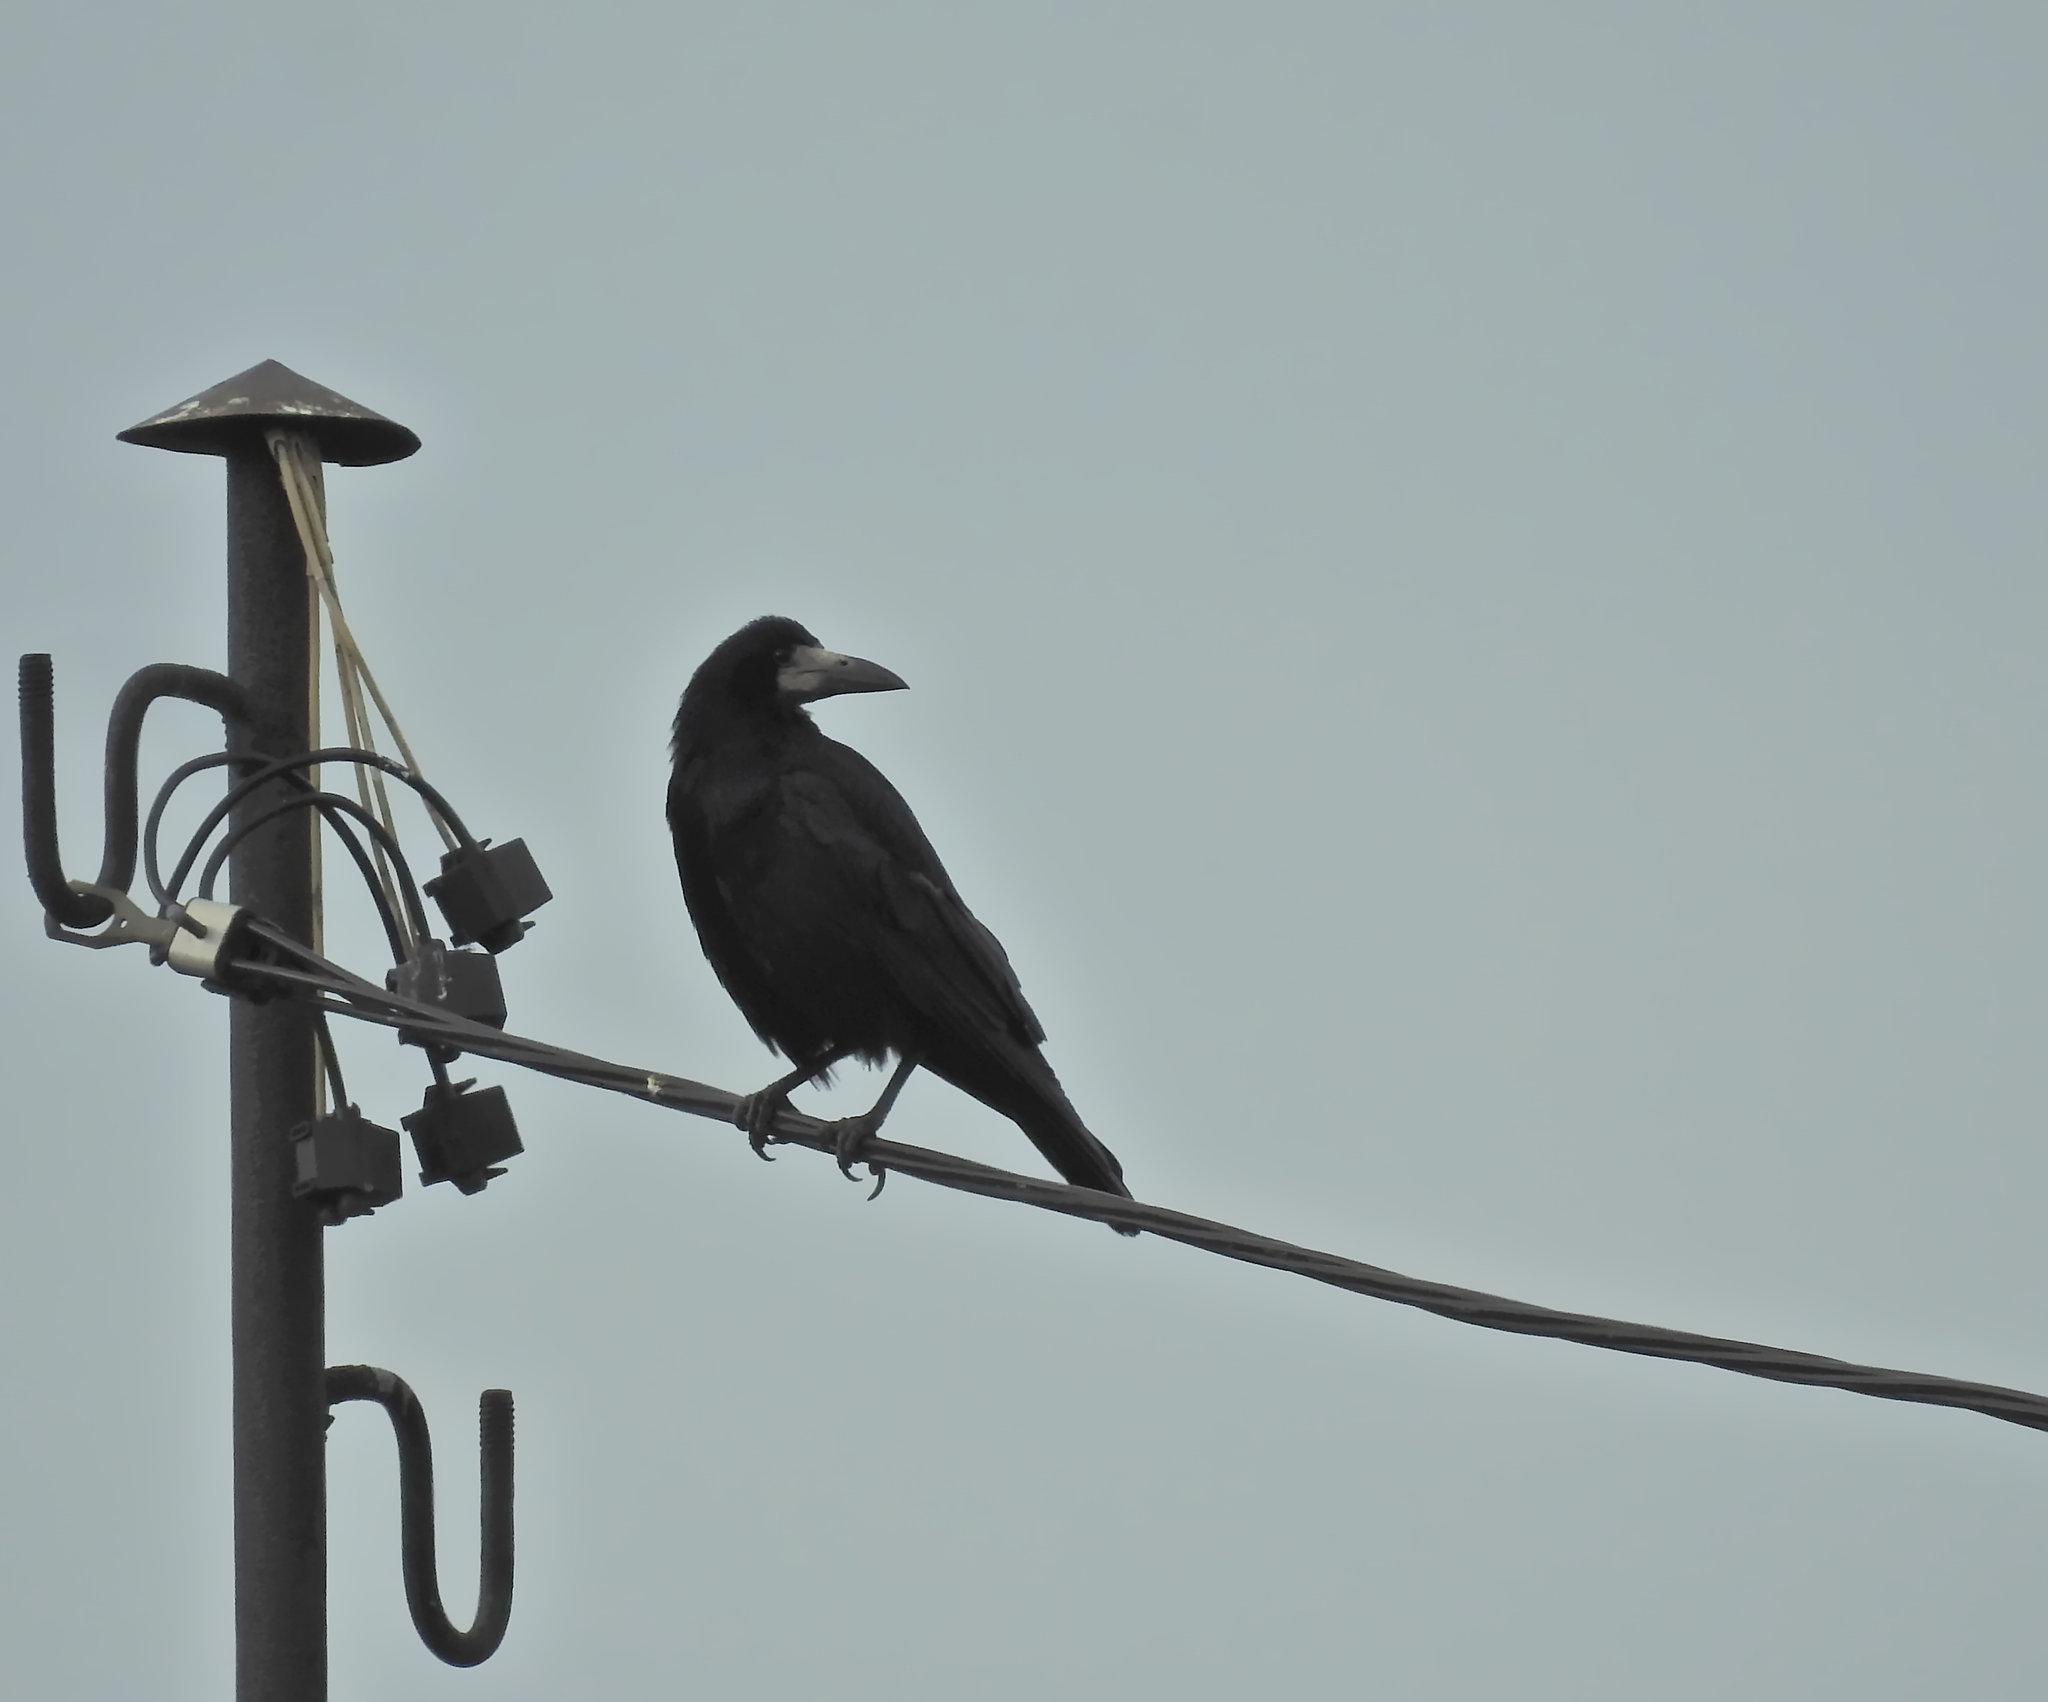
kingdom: Animalia
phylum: Chordata
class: Aves
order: Passeriformes
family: Corvidae
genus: Corvus
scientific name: Corvus frugilegus
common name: Rook
